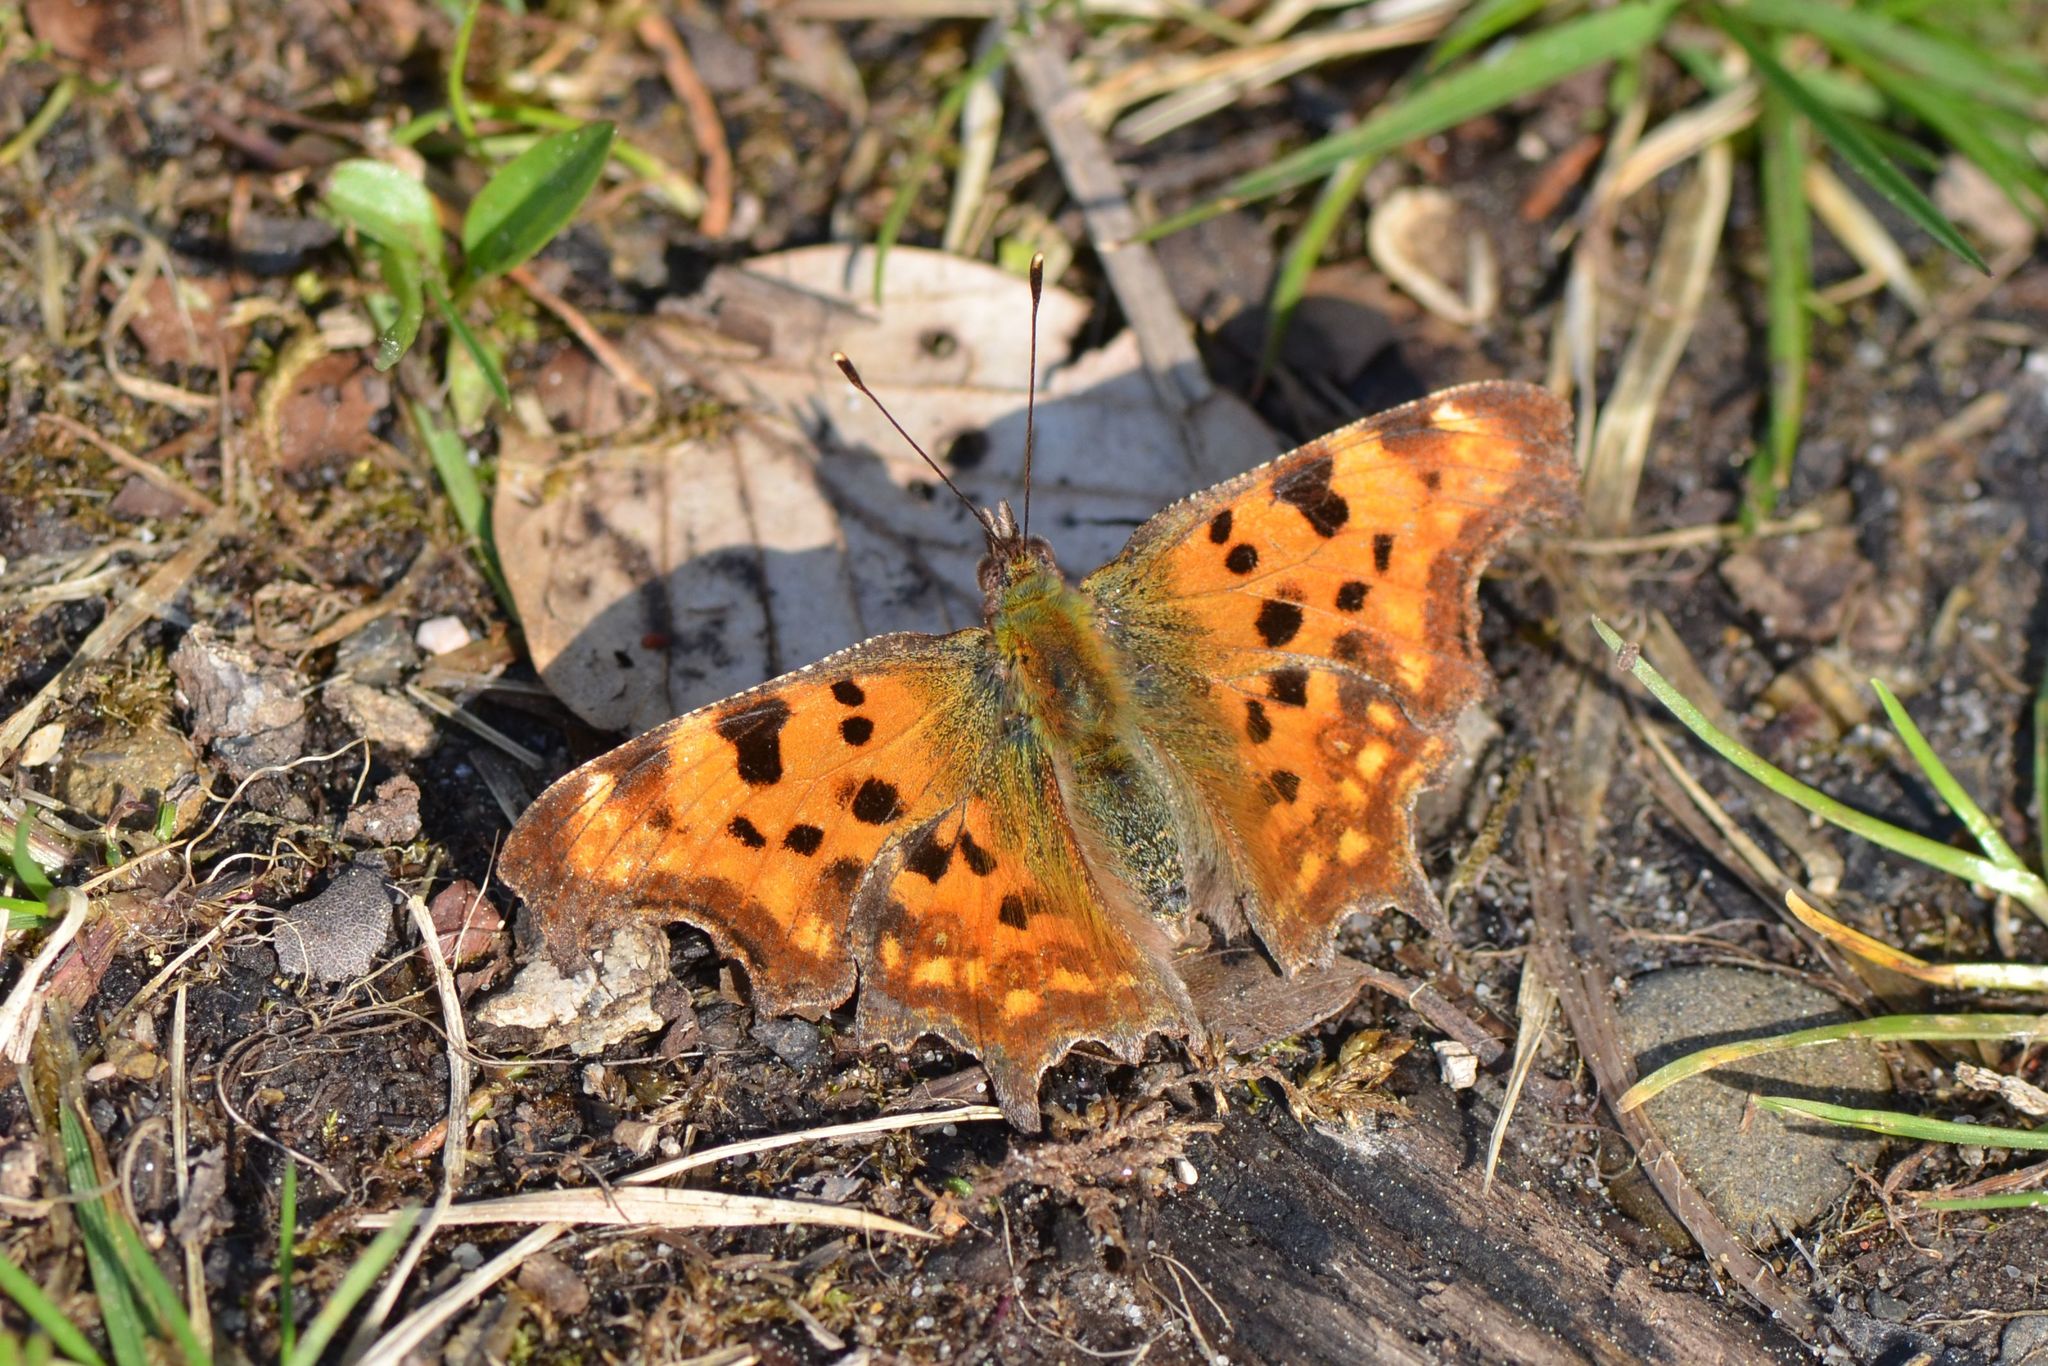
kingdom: Animalia
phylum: Arthropoda
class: Insecta
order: Lepidoptera
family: Nymphalidae
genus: Polygonia
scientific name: Polygonia c-album
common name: Comma
